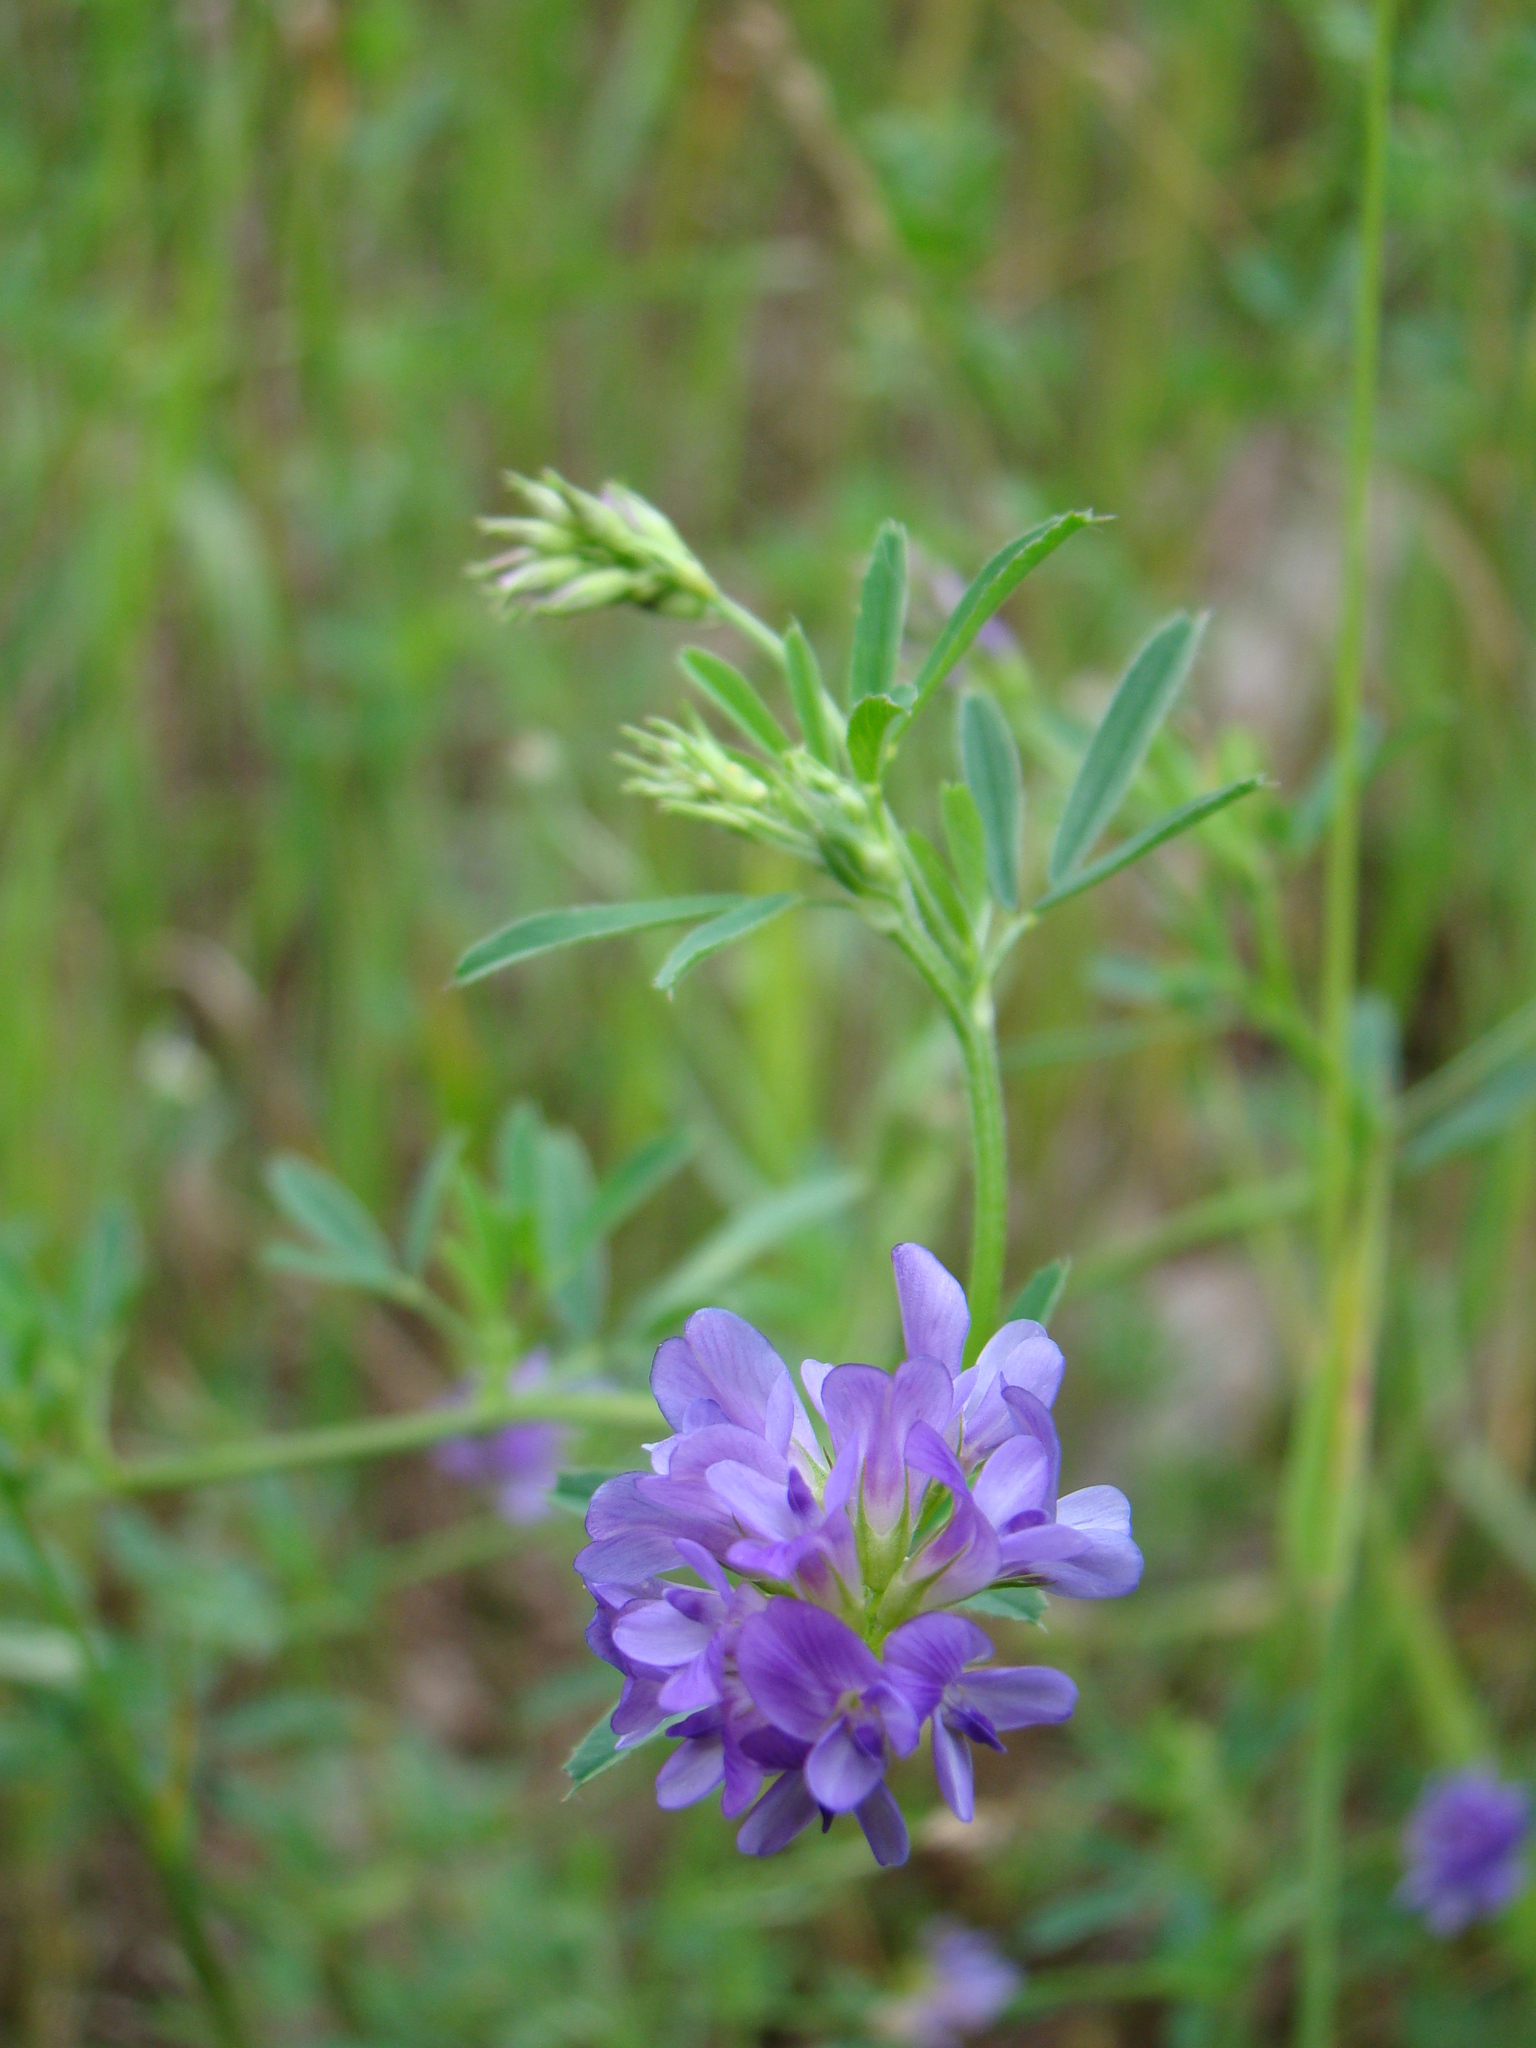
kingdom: Plantae
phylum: Tracheophyta
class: Magnoliopsida
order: Fabales
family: Fabaceae
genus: Medicago
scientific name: Medicago sativa
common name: Alfalfa
